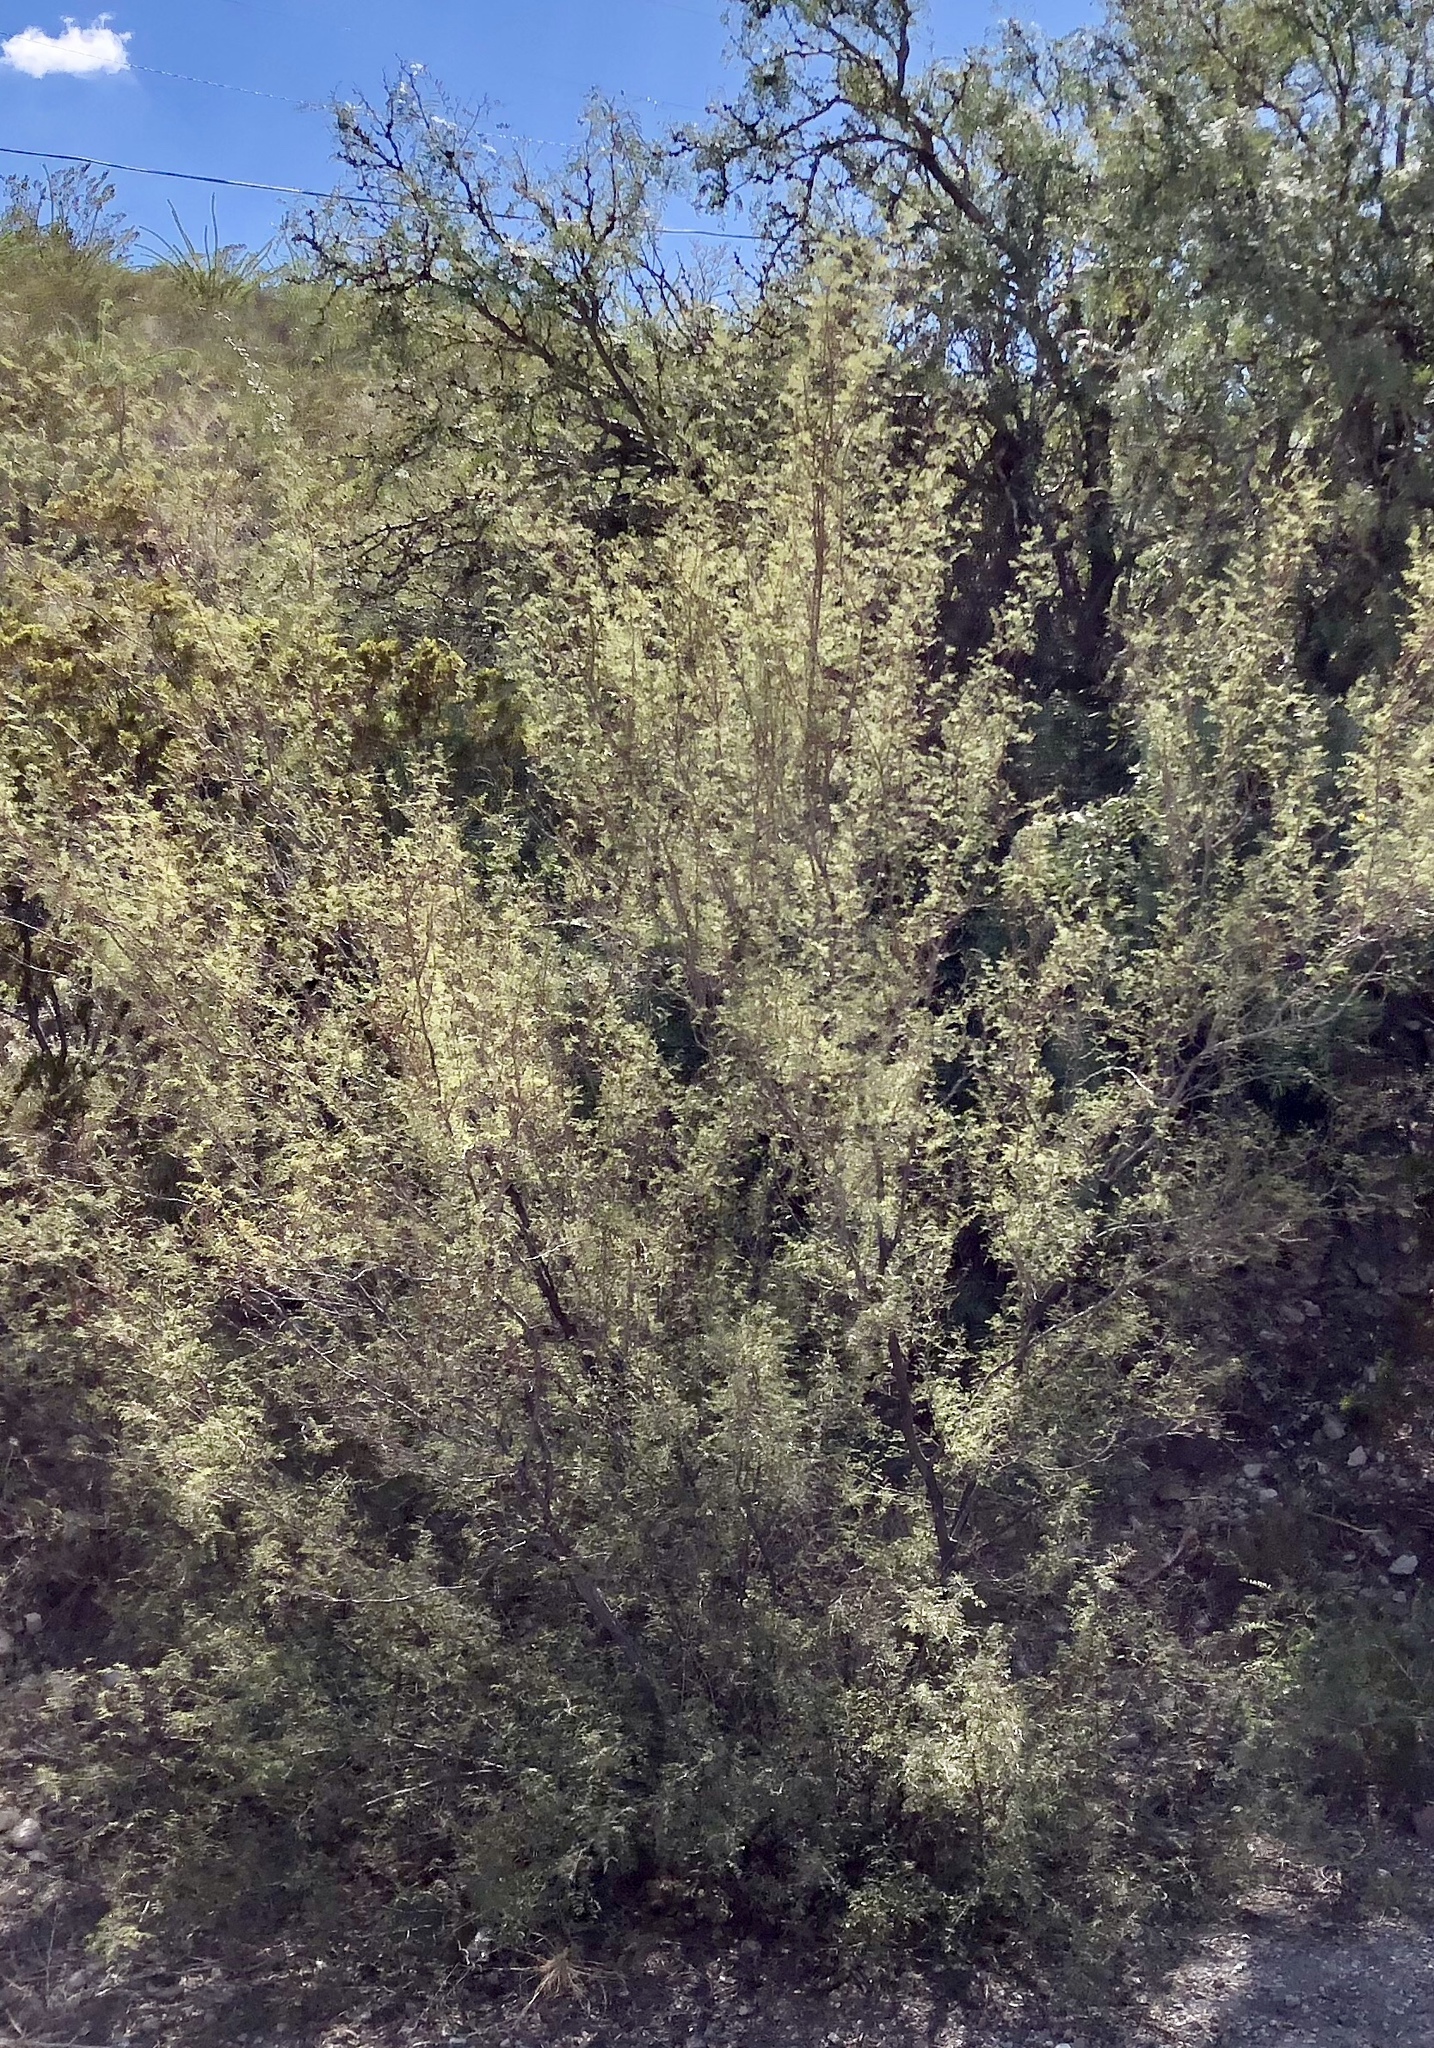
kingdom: Plantae
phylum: Tracheophyta
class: Magnoliopsida
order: Fabales
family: Fabaceae
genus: Vachellia
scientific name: Vachellia constricta
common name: Mescat acacia
